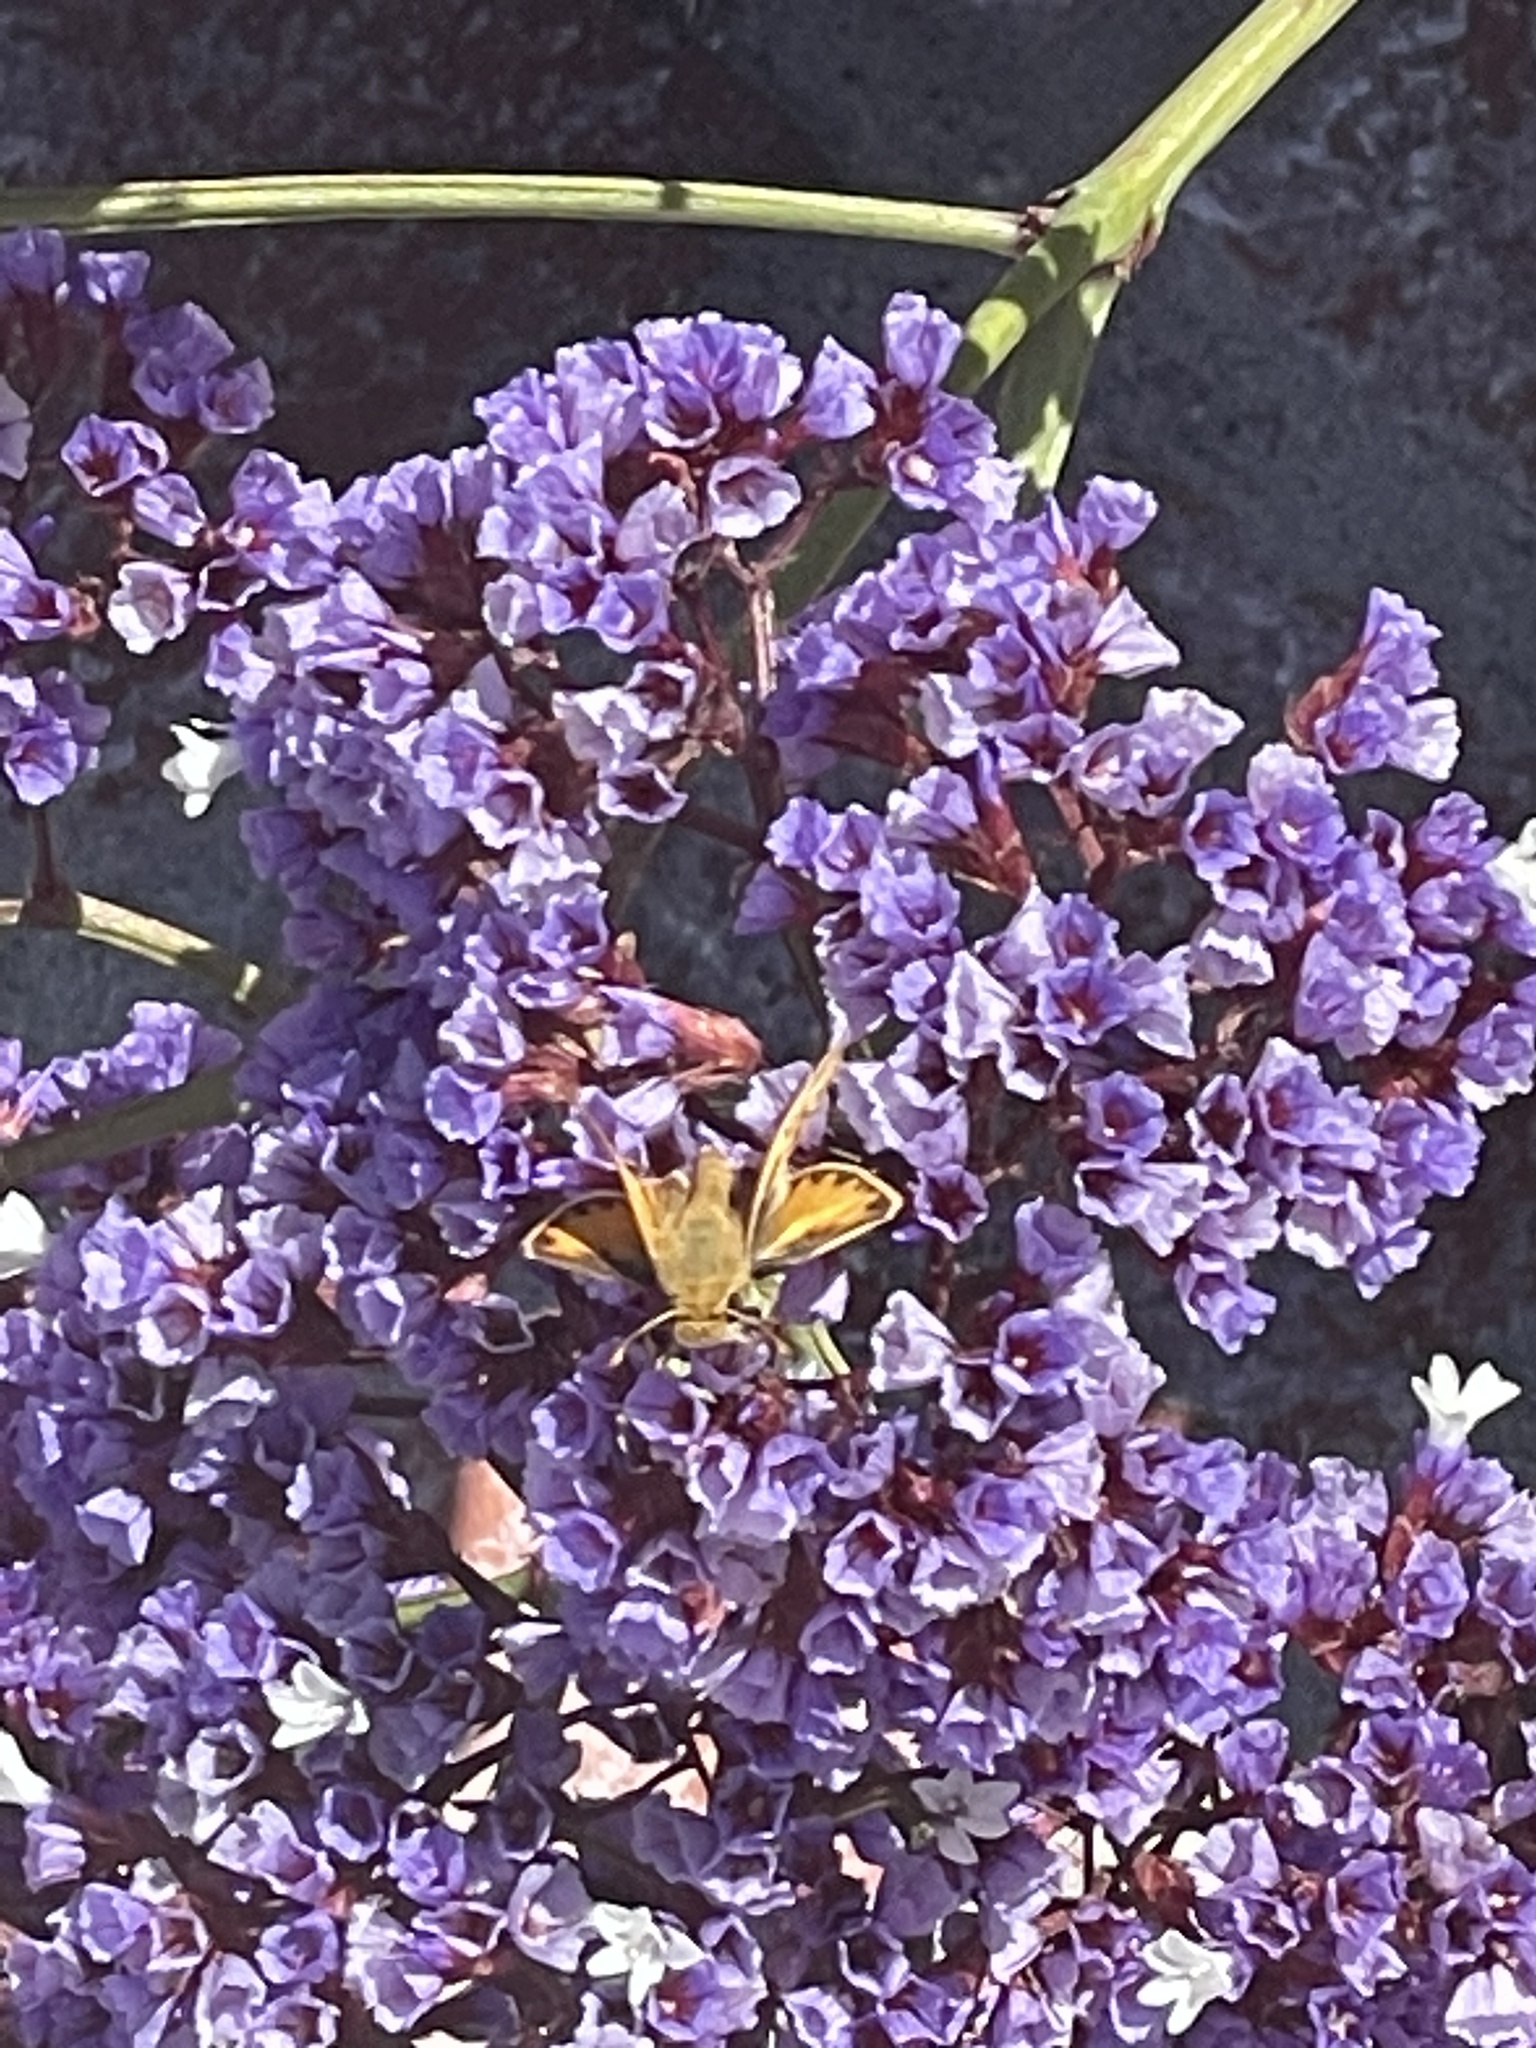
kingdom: Animalia
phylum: Arthropoda
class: Insecta
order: Lepidoptera
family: Hesperiidae
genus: Hylephila
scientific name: Hylephila phyleus
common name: Fiery skipper
